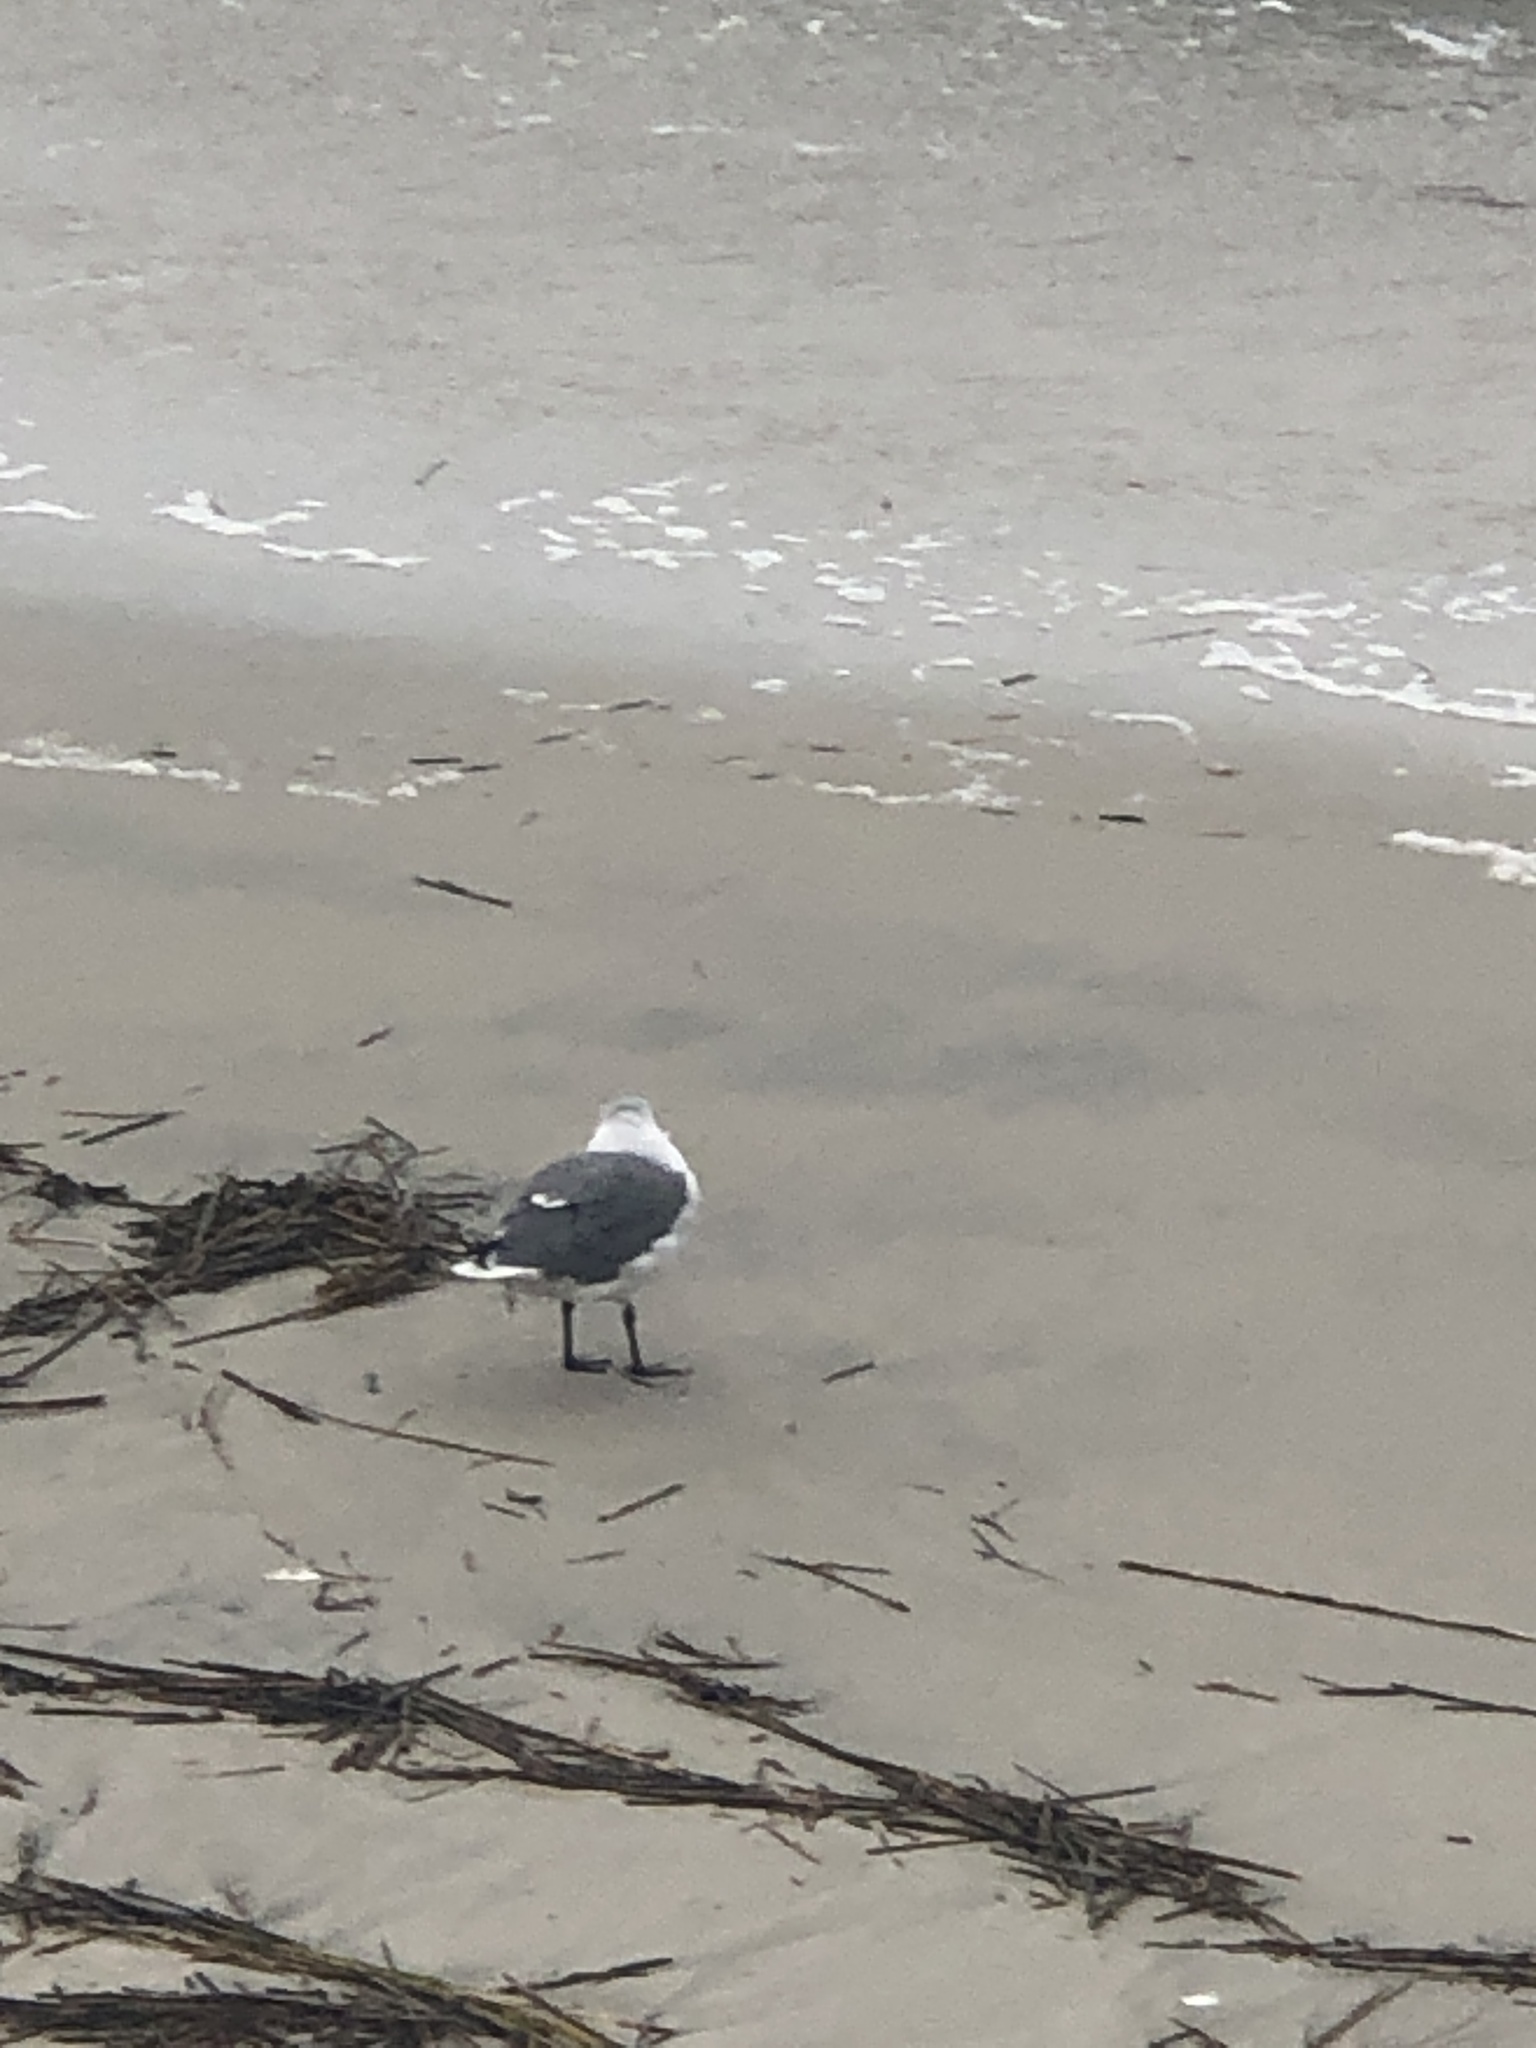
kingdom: Animalia
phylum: Chordata
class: Aves
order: Charadriiformes
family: Laridae
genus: Leucophaeus
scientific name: Leucophaeus atricilla
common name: Laughing gull
